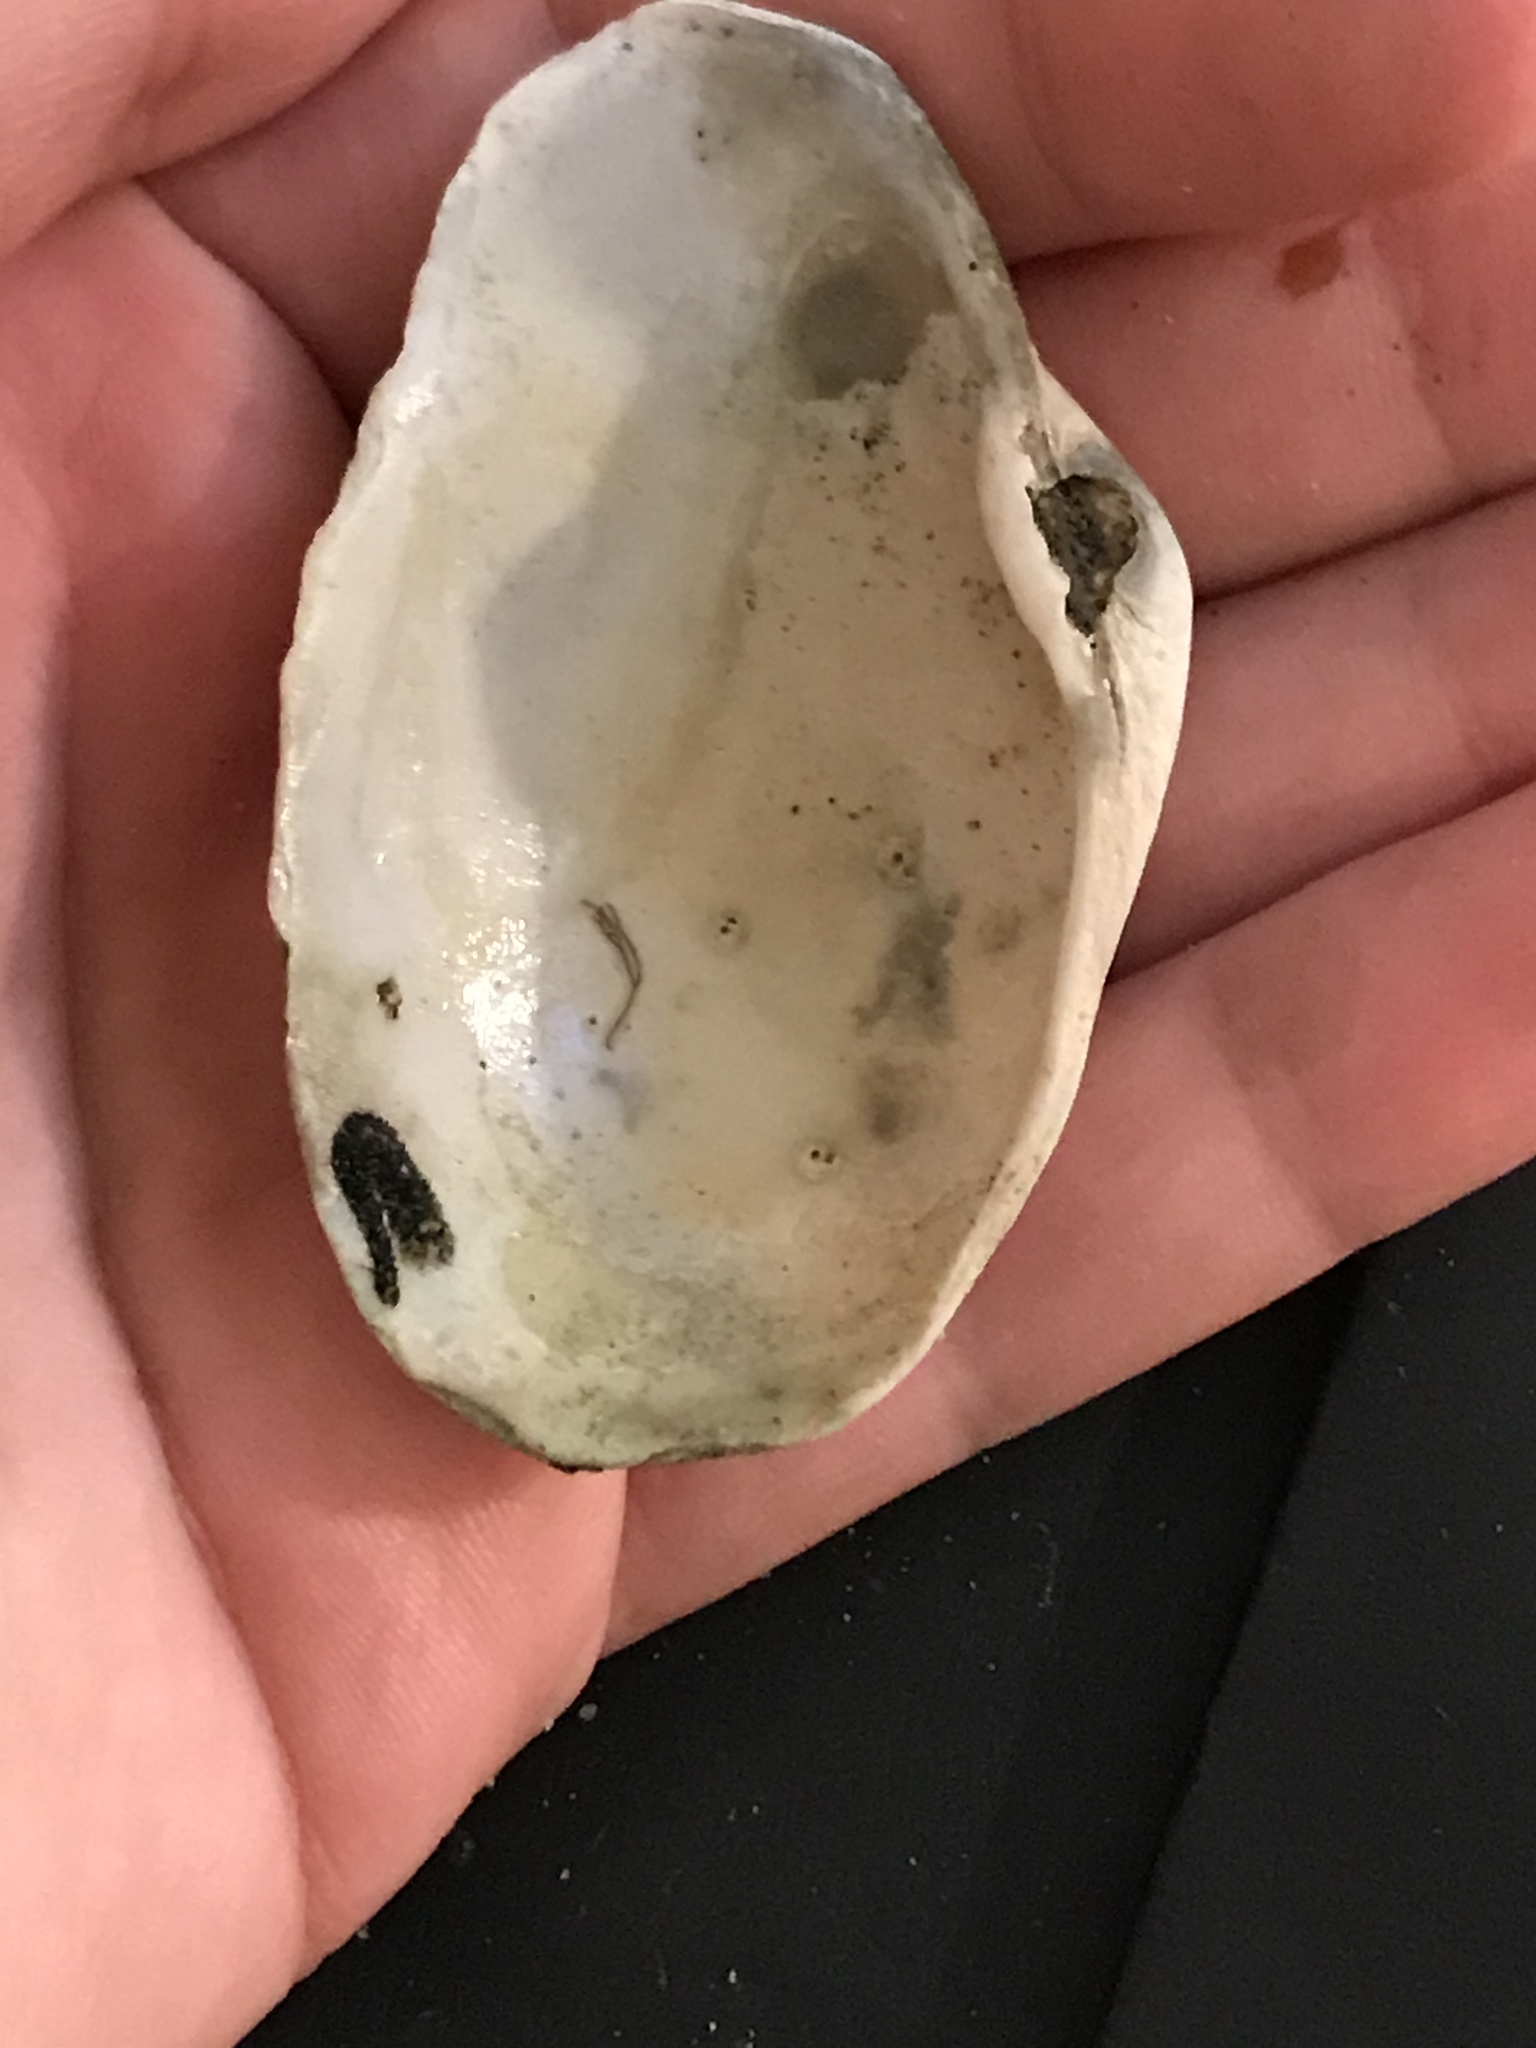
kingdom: Animalia
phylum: Mollusca
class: Bivalvia
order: Myida
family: Myidae
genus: Platyodon
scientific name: Platyodon cancellatus
